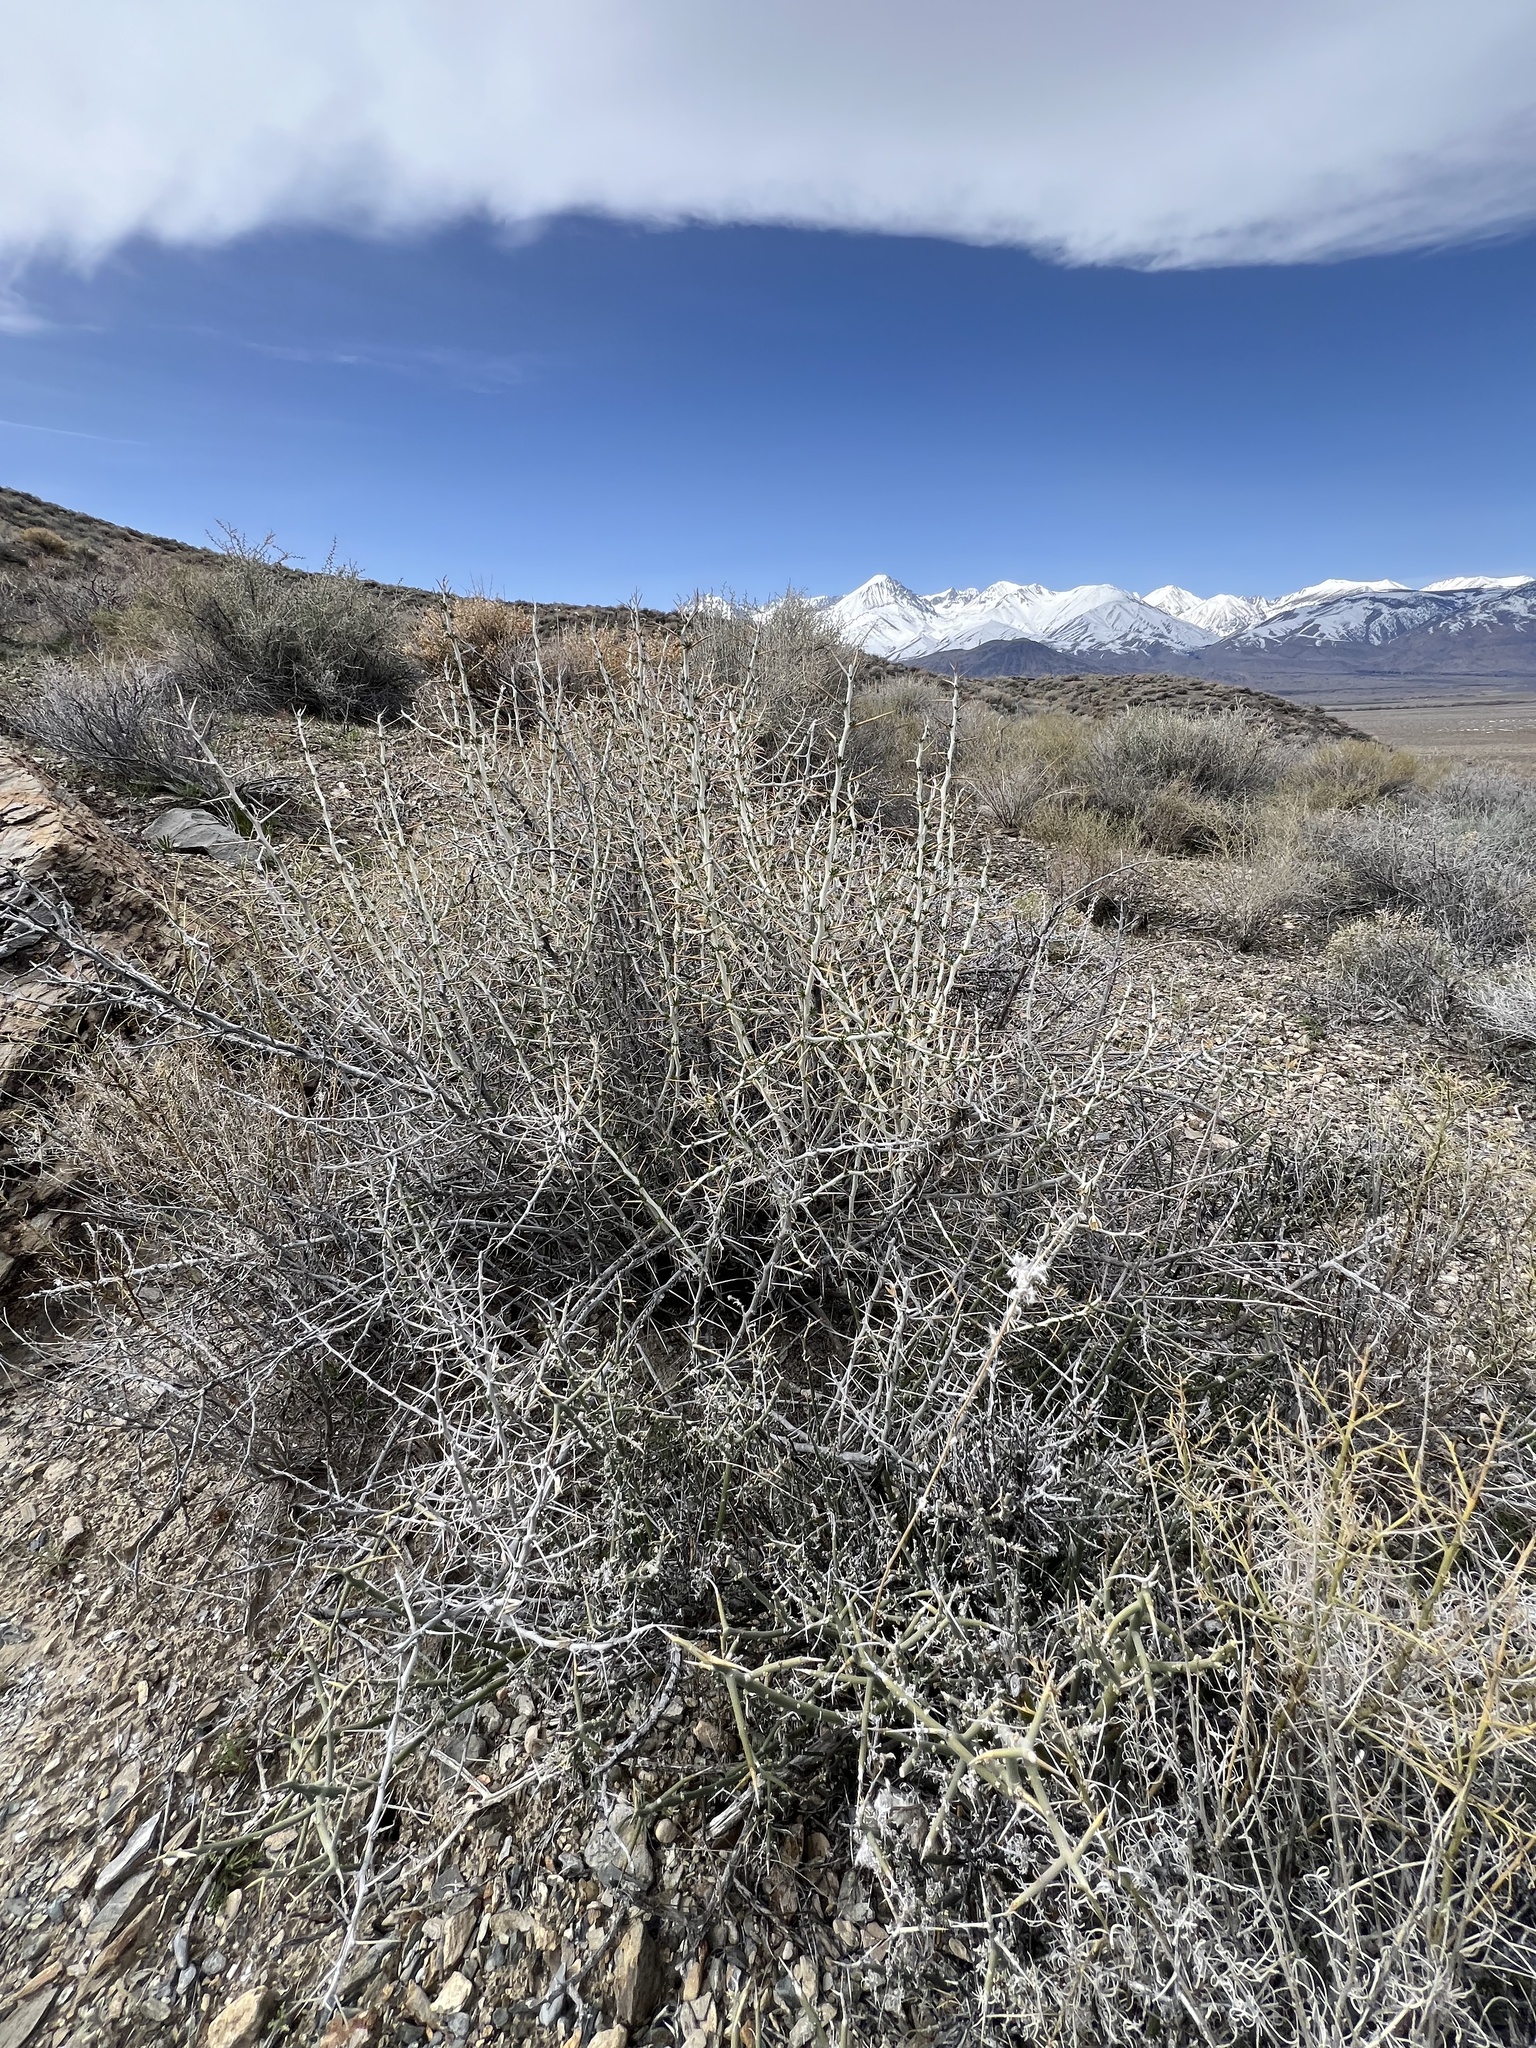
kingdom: Plantae
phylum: Tracheophyta
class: Magnoliopsida
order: Asterales
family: Asteraceae
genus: Tetradymia
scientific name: Tetradymia axillaris
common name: Long-spine horsebrush
